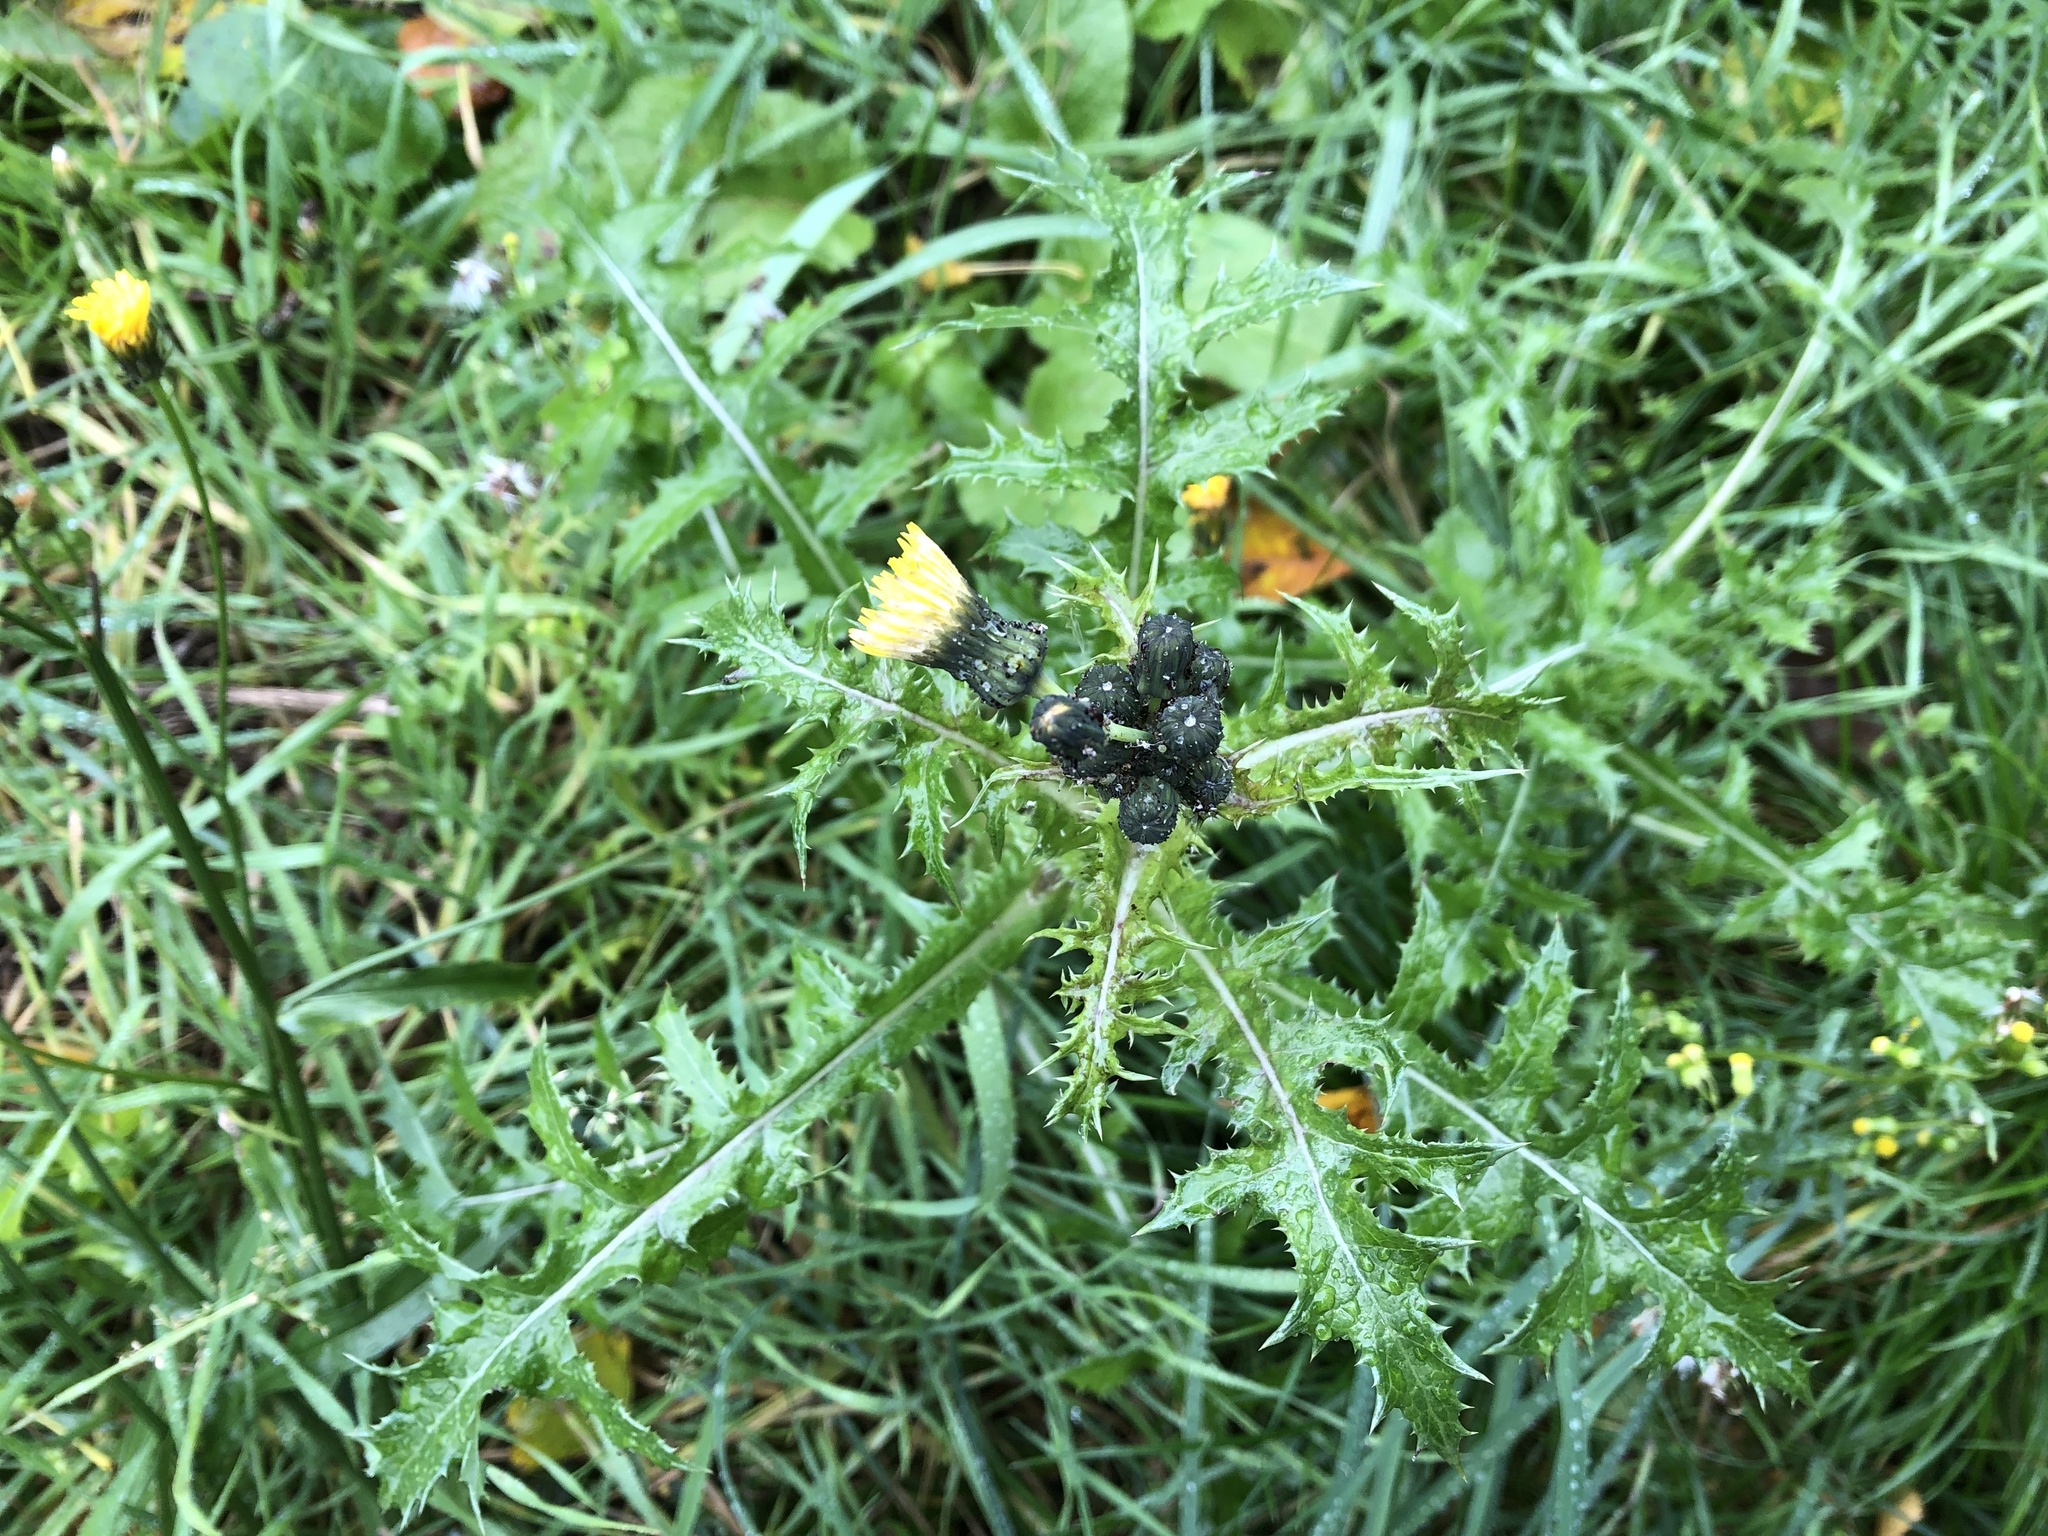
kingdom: Plantae
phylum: Tracheophyta
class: Magnoliopsida
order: Asterales
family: Asteraceae
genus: Sonchus
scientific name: Sonchus asper
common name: Prickly sow-thistle
